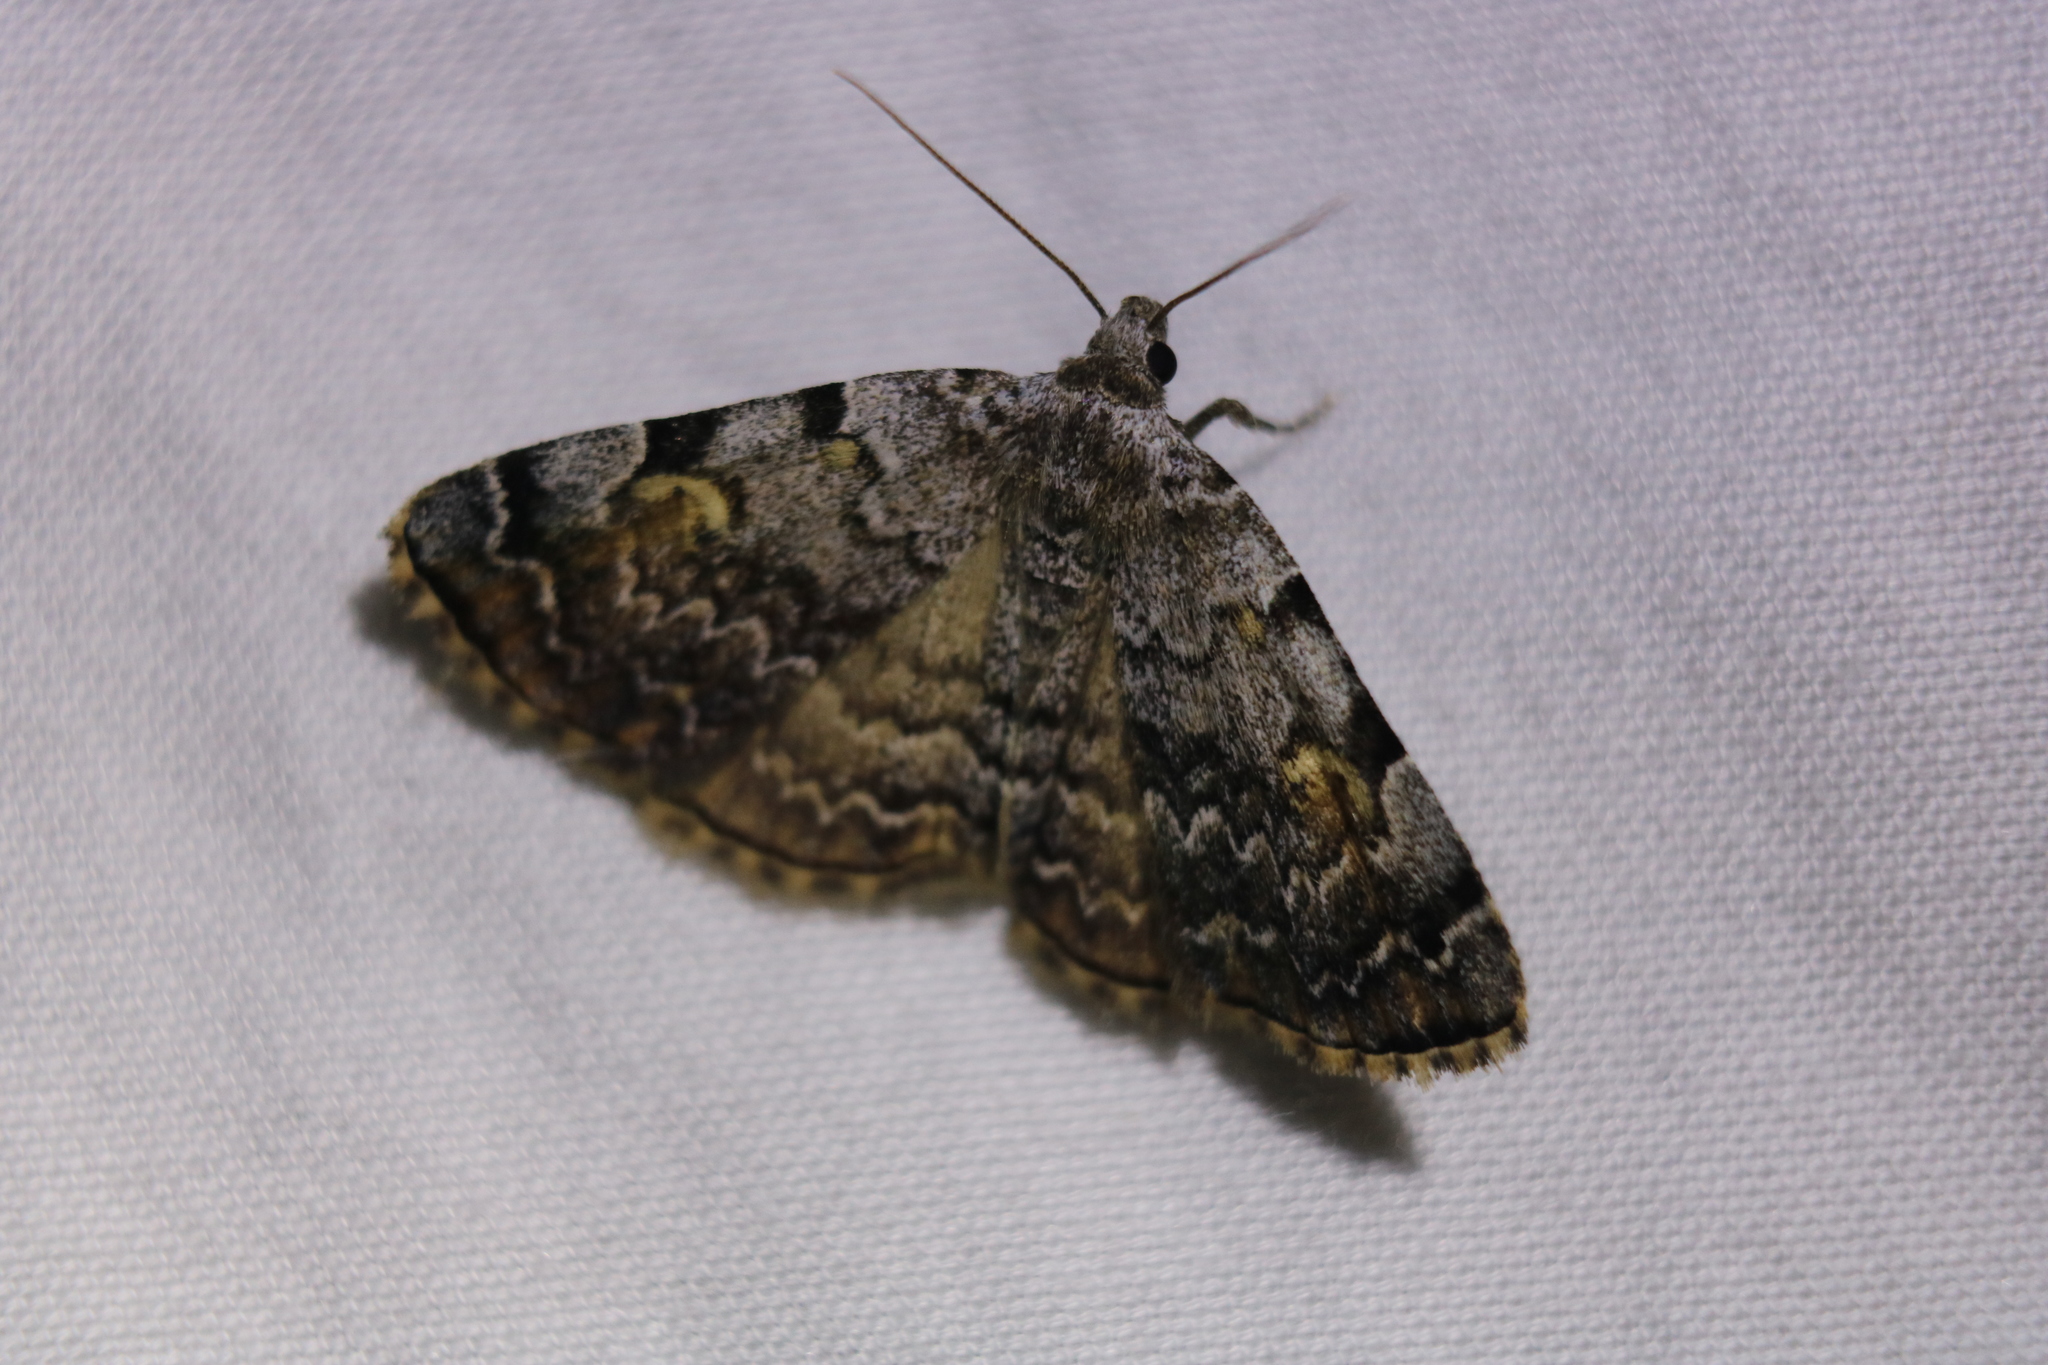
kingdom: Animalia
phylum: Arthropoda
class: Insecta
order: Lepidoptera
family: Erebidae
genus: Idia
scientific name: Idia americalis
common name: American idia moth
